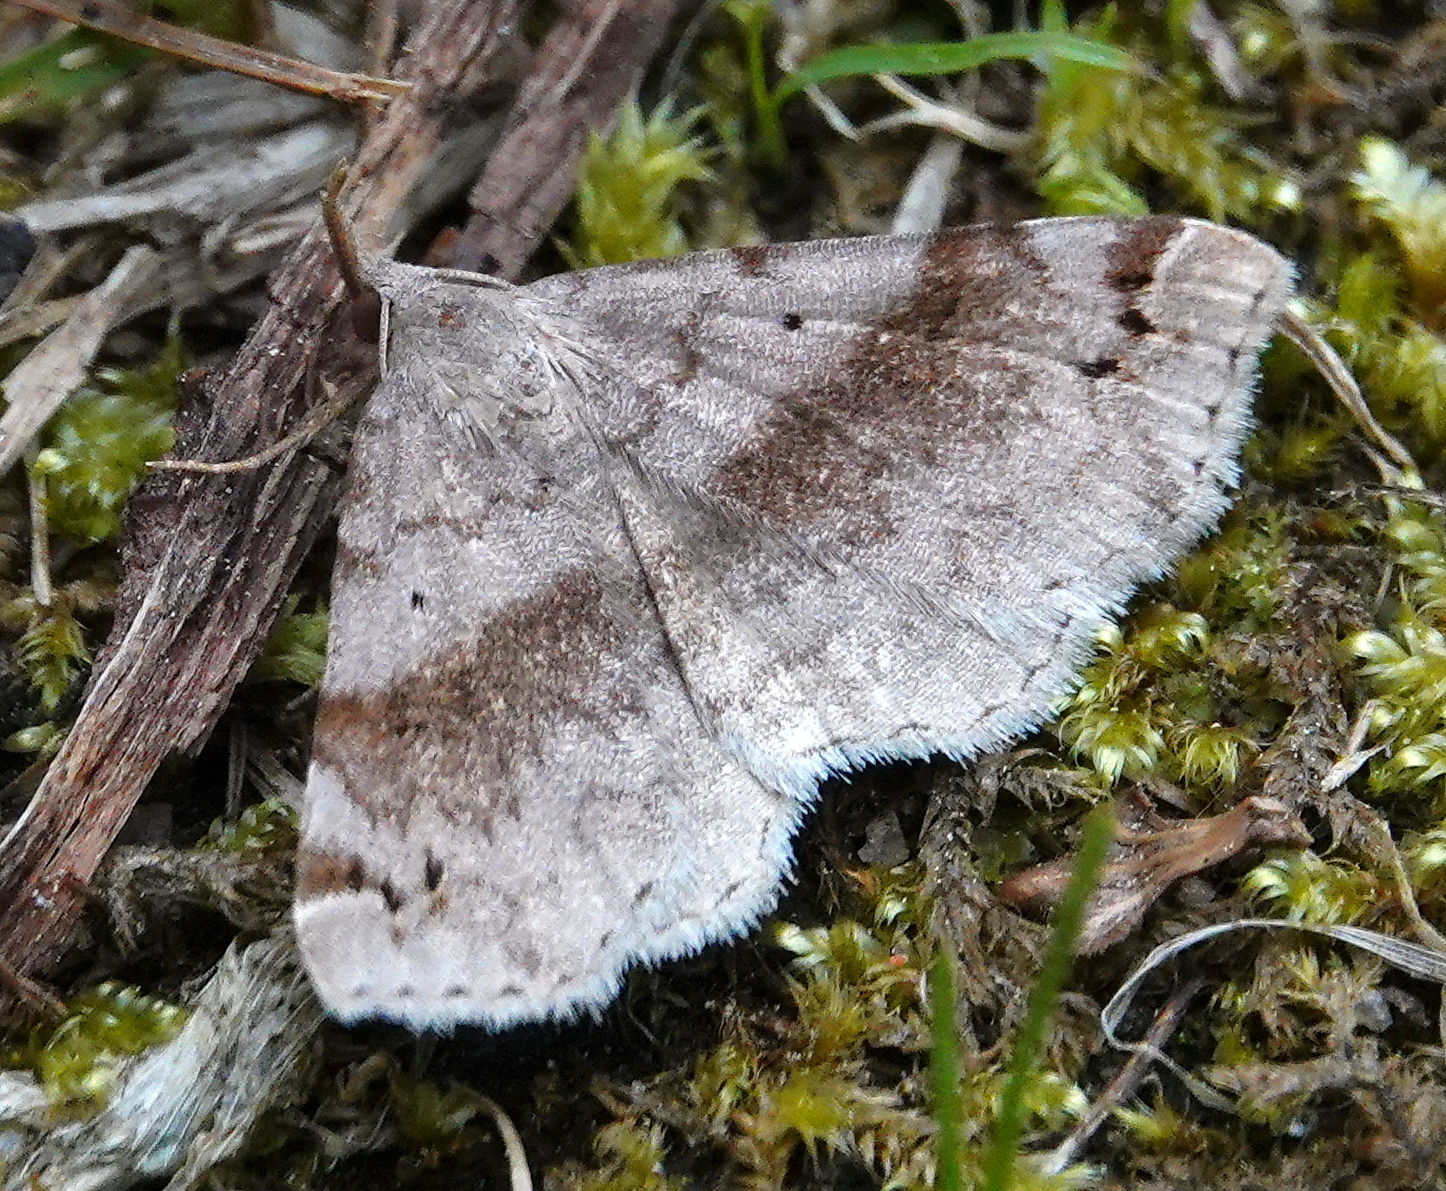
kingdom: Animalia
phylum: Arthropoda
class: Insecta
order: Lepidoptera
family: Erebidae
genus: Spargaloma
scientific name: Spargaloma sexpunctata
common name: Six-spotted gray
